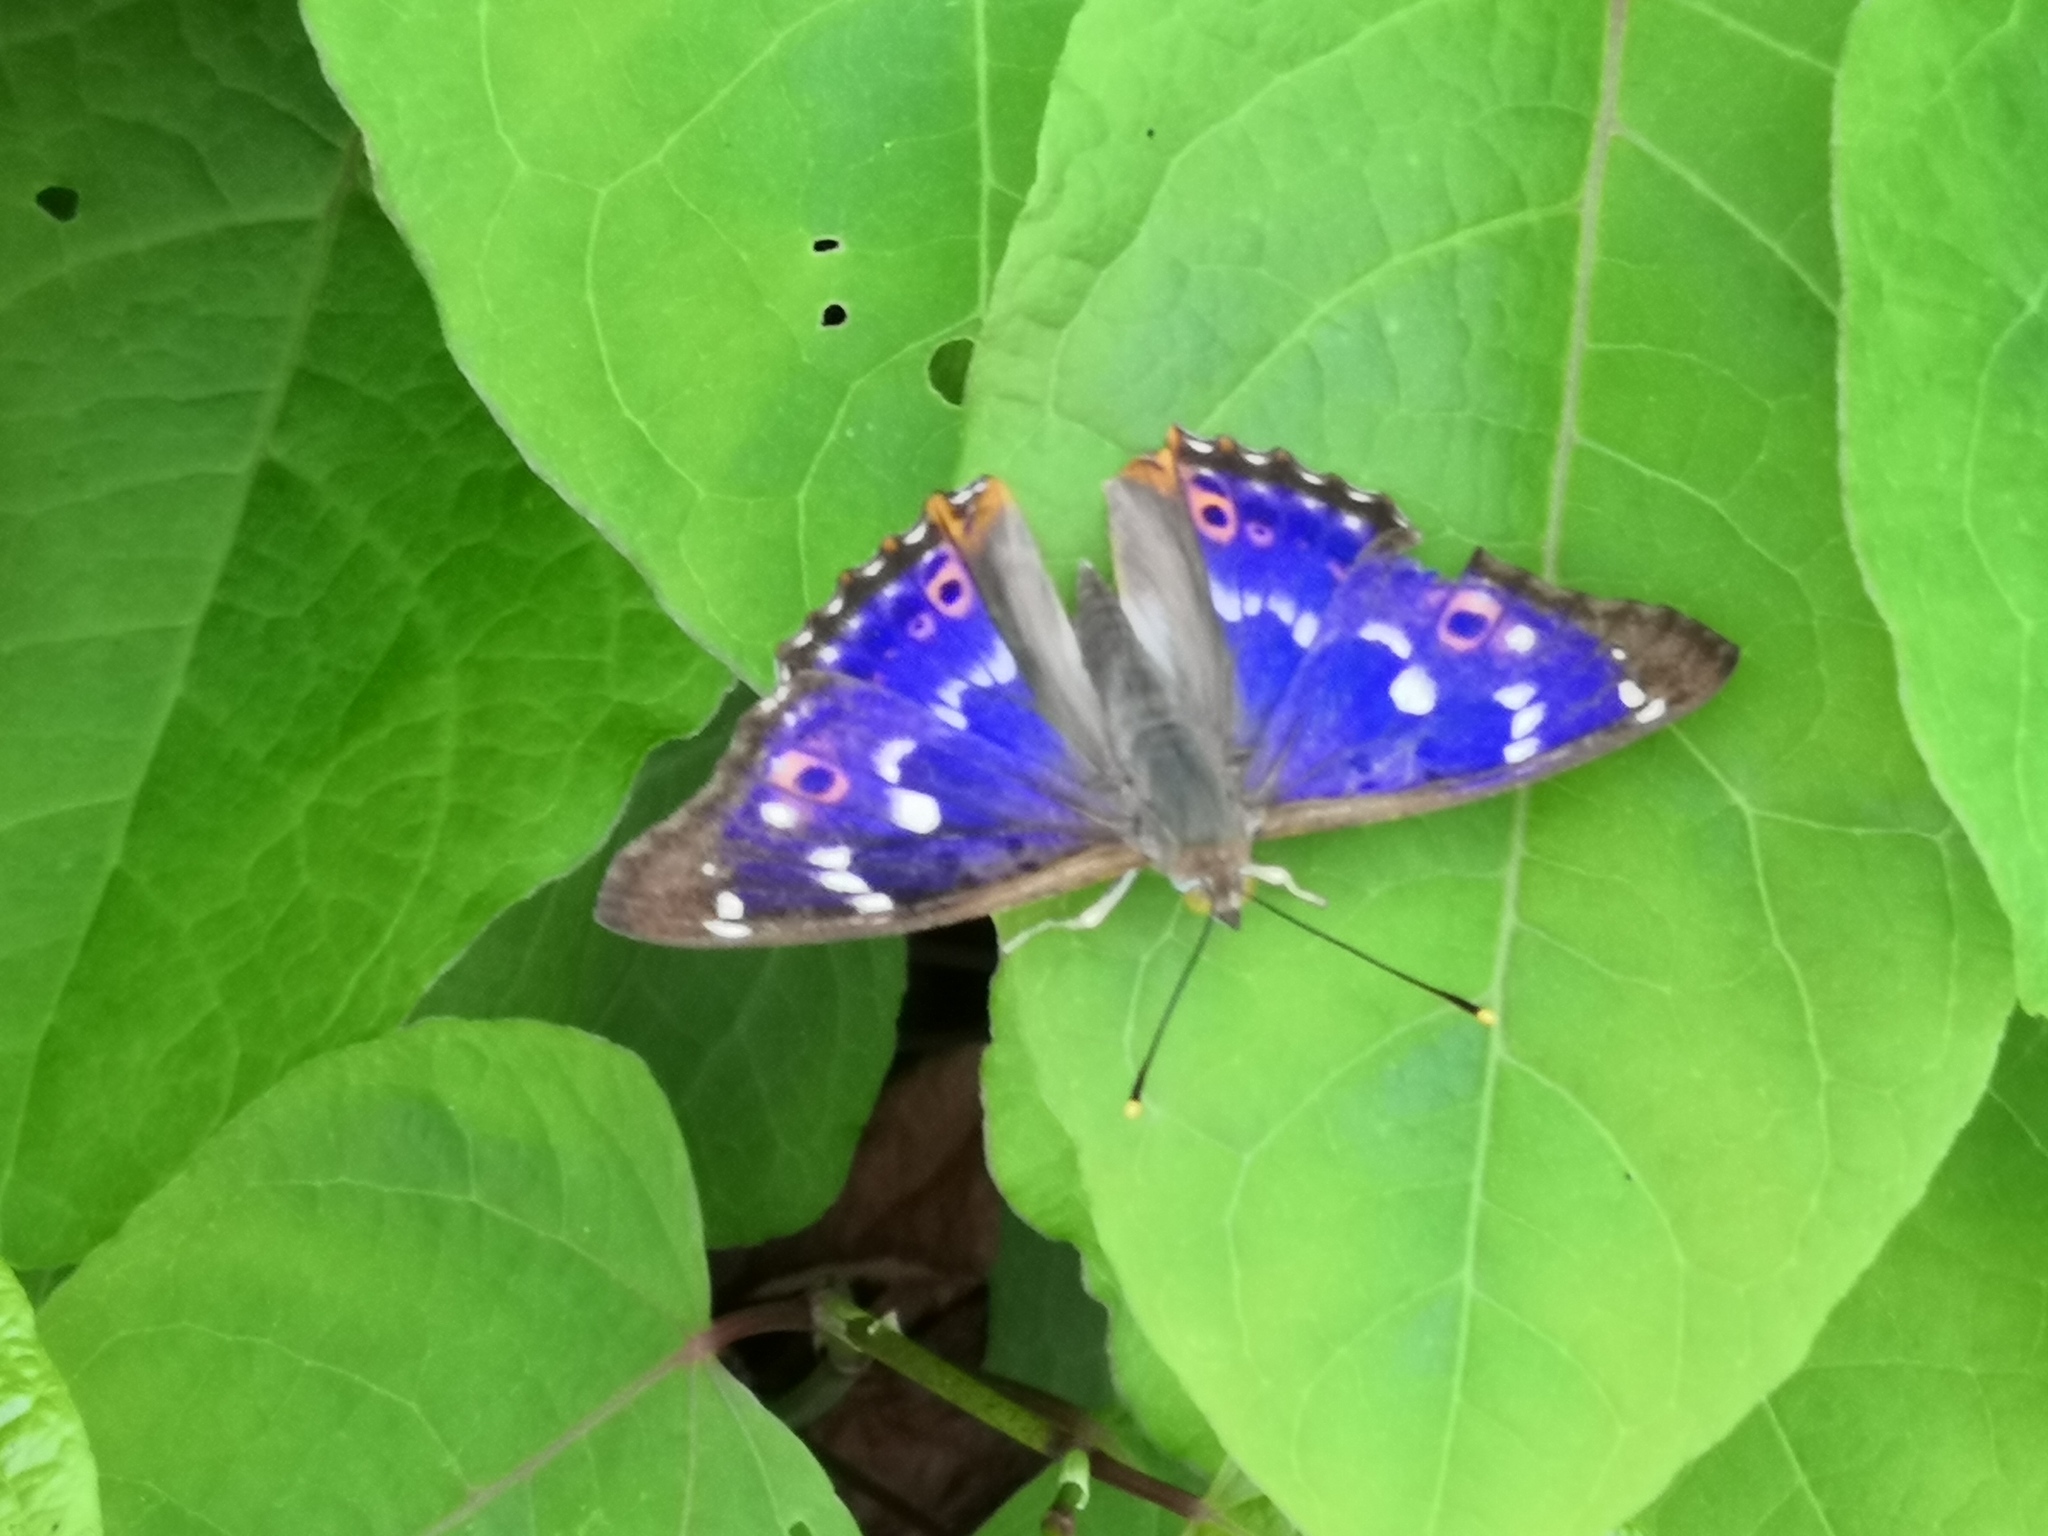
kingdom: Animalia
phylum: Arthropoda
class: Insecta
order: Lepidoptera
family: Nymphalidae
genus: Apatura
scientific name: Apatura ilia
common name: Lesser purple emperor
